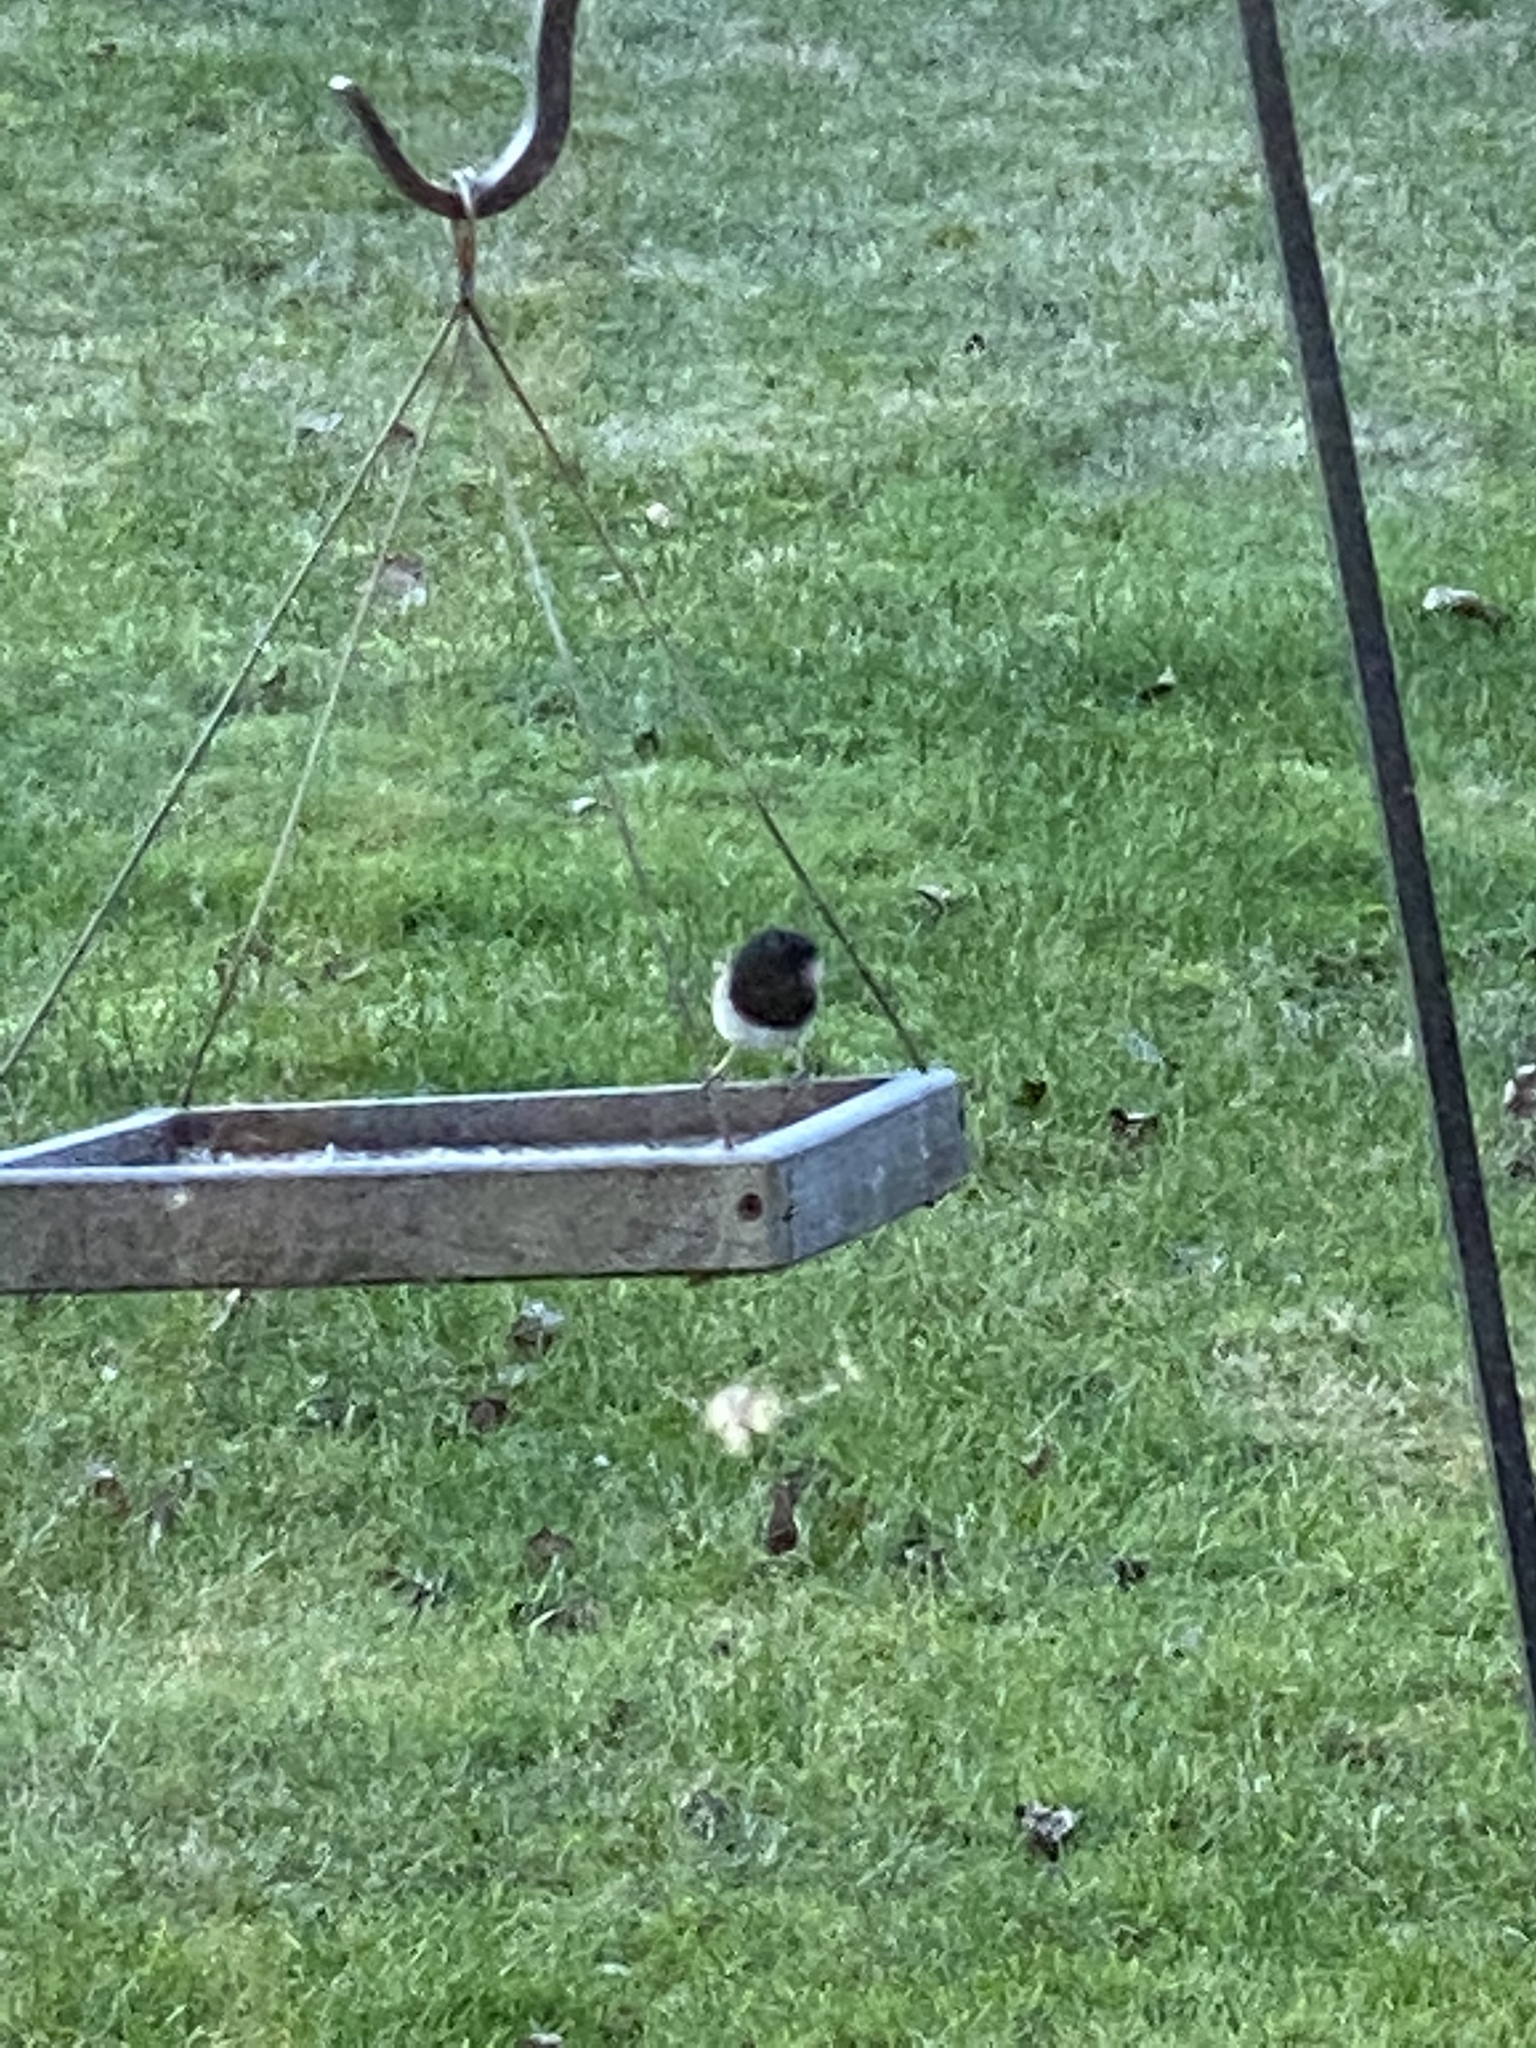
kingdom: Animalia
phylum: Chordata
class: Aves
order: Passeriformes
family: Passerellidae
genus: Junco
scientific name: Junco hyemalis
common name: Dark-eyed junco
